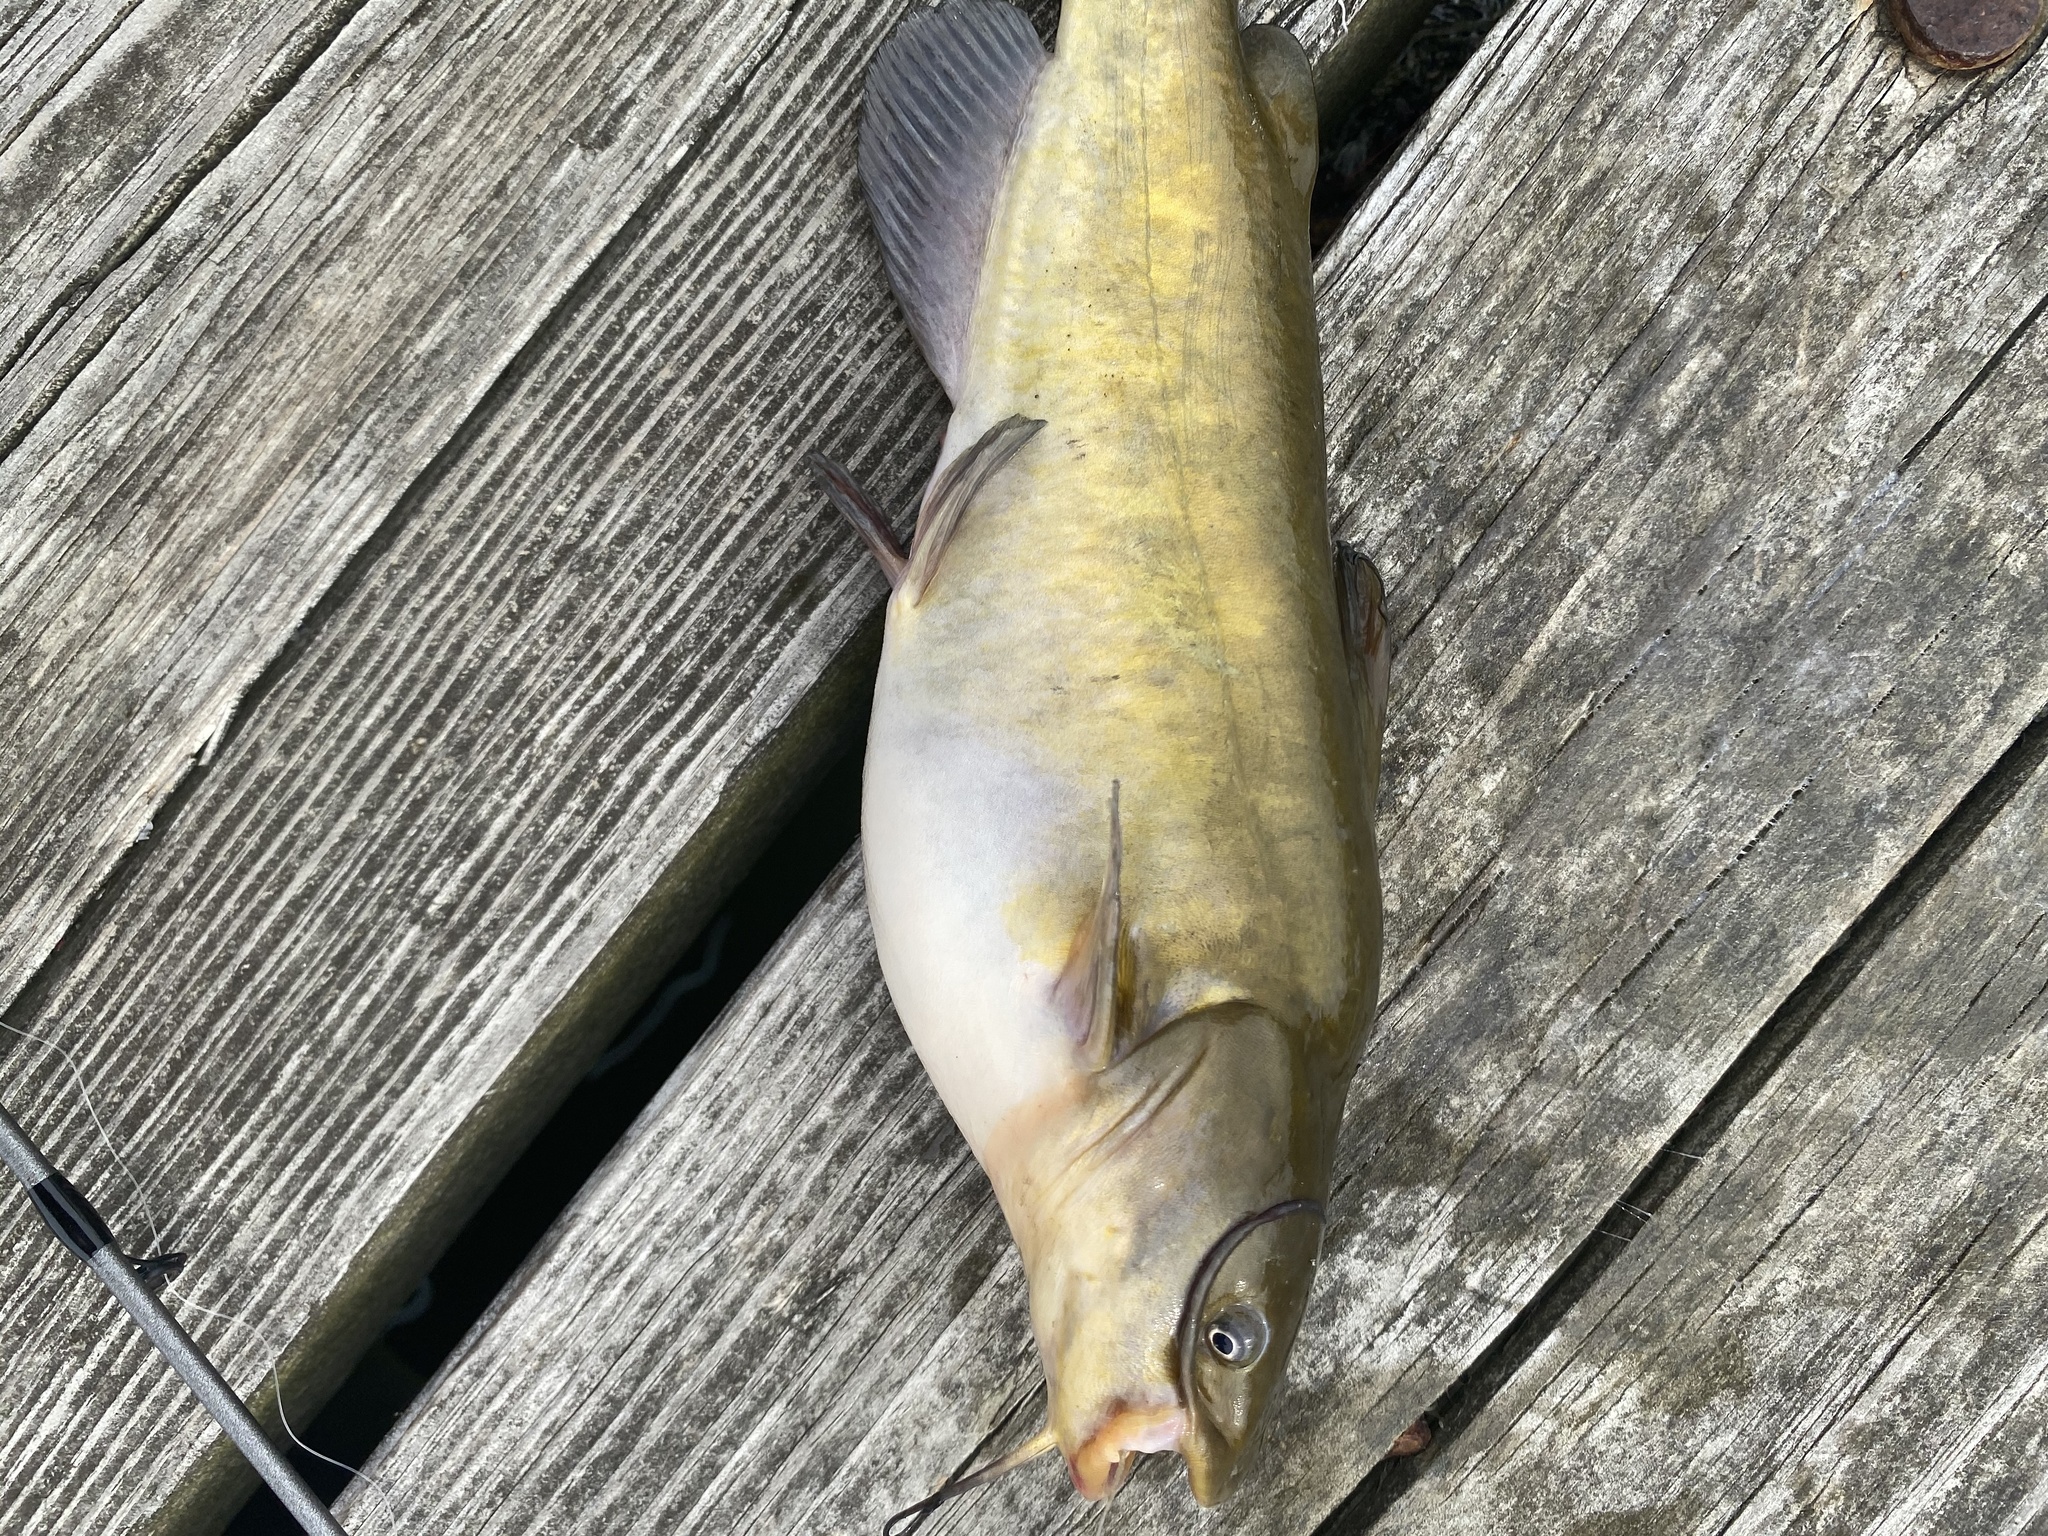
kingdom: Animalia
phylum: Chordata
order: Siluriformes
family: Ictaluridae
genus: Ameiurus
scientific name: Ameiurus nebulosus
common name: Brown bullhead
